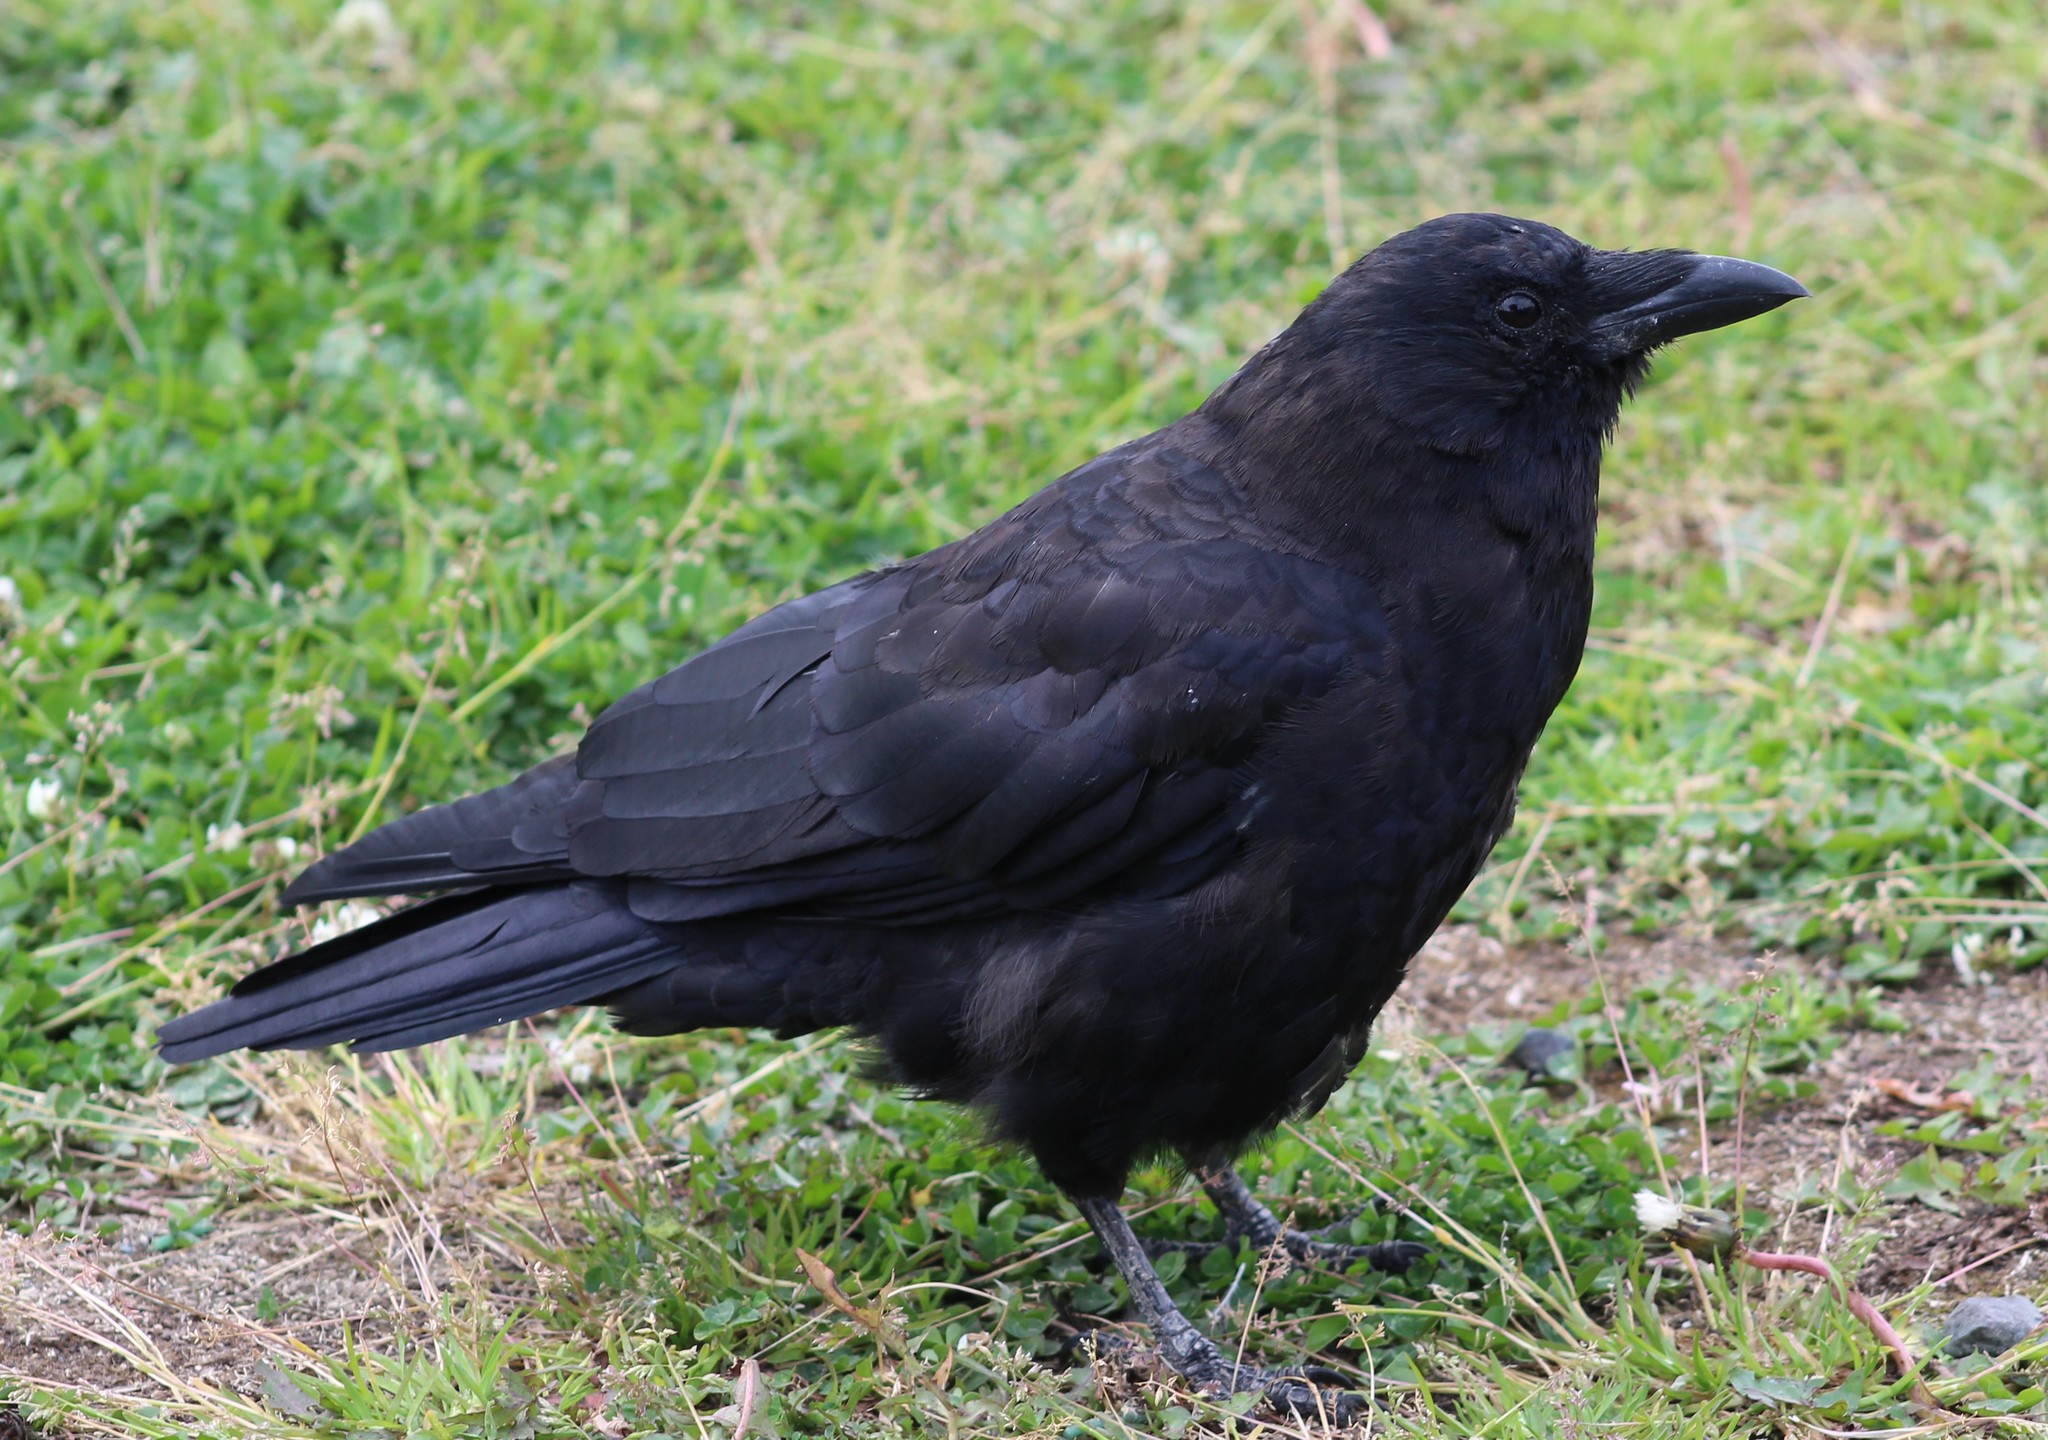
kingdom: Animalia
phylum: Chordata
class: Aves
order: Passeriformes
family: Corvidae
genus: Corvus
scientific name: Corvus brachyrhynchos
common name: American crow
